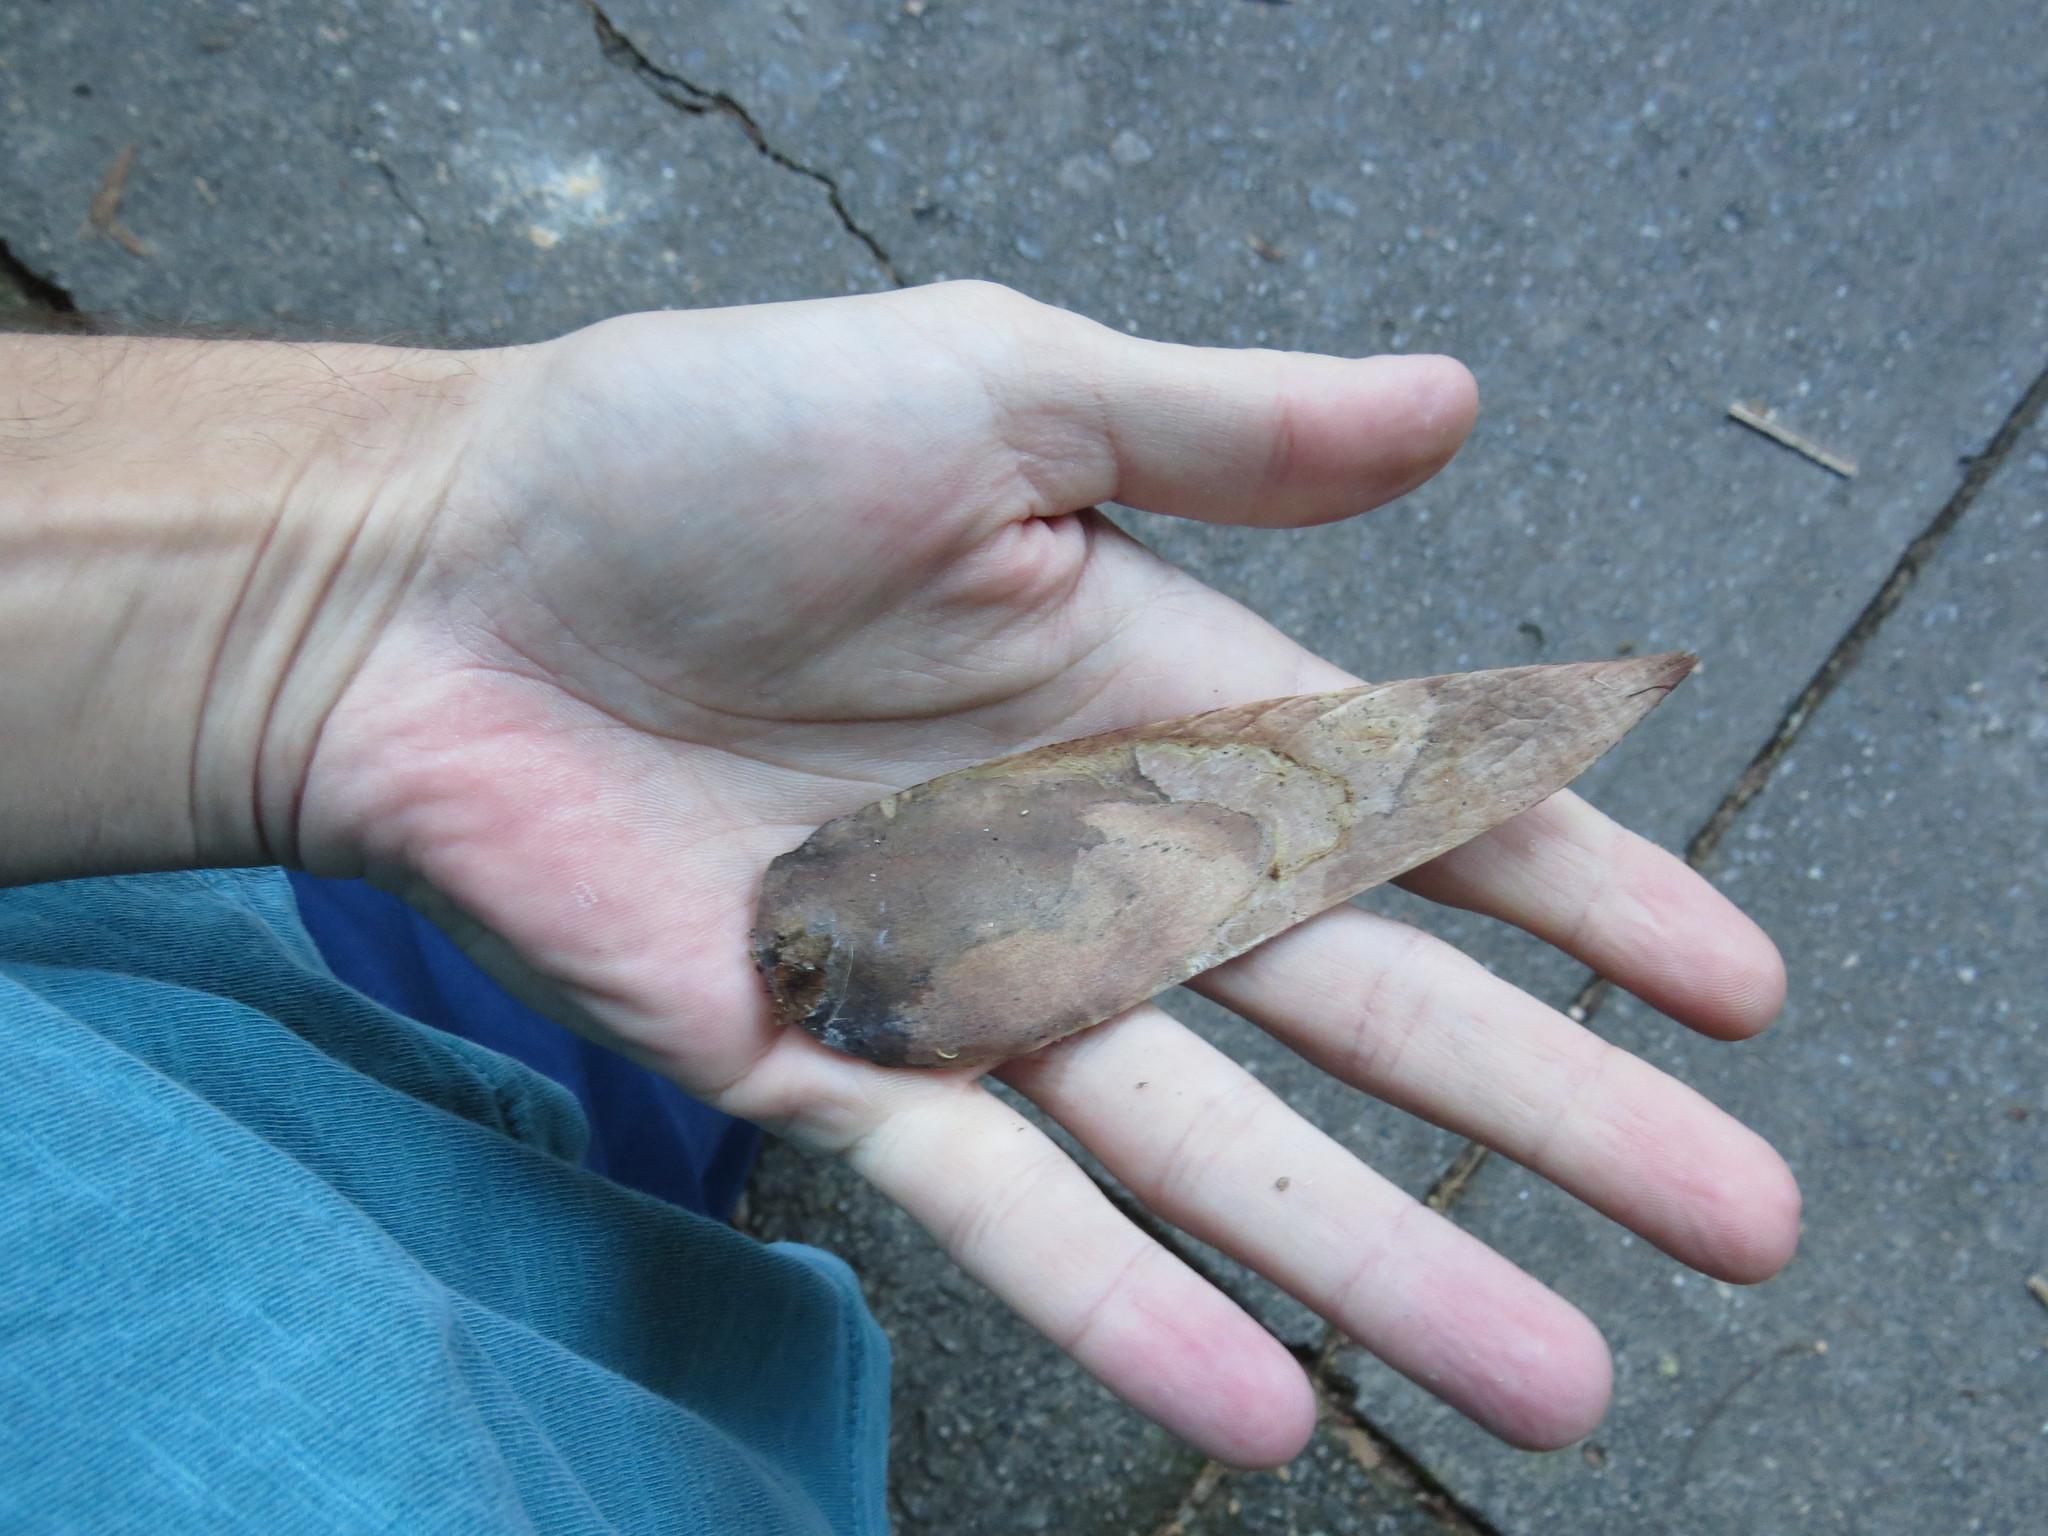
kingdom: Plantae
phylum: Tracheophyta
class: Magnoliopsida
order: Fabales
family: Fabaceae
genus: Schizolobium
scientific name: Schizolobium parahyba
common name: Brazilian firetree
